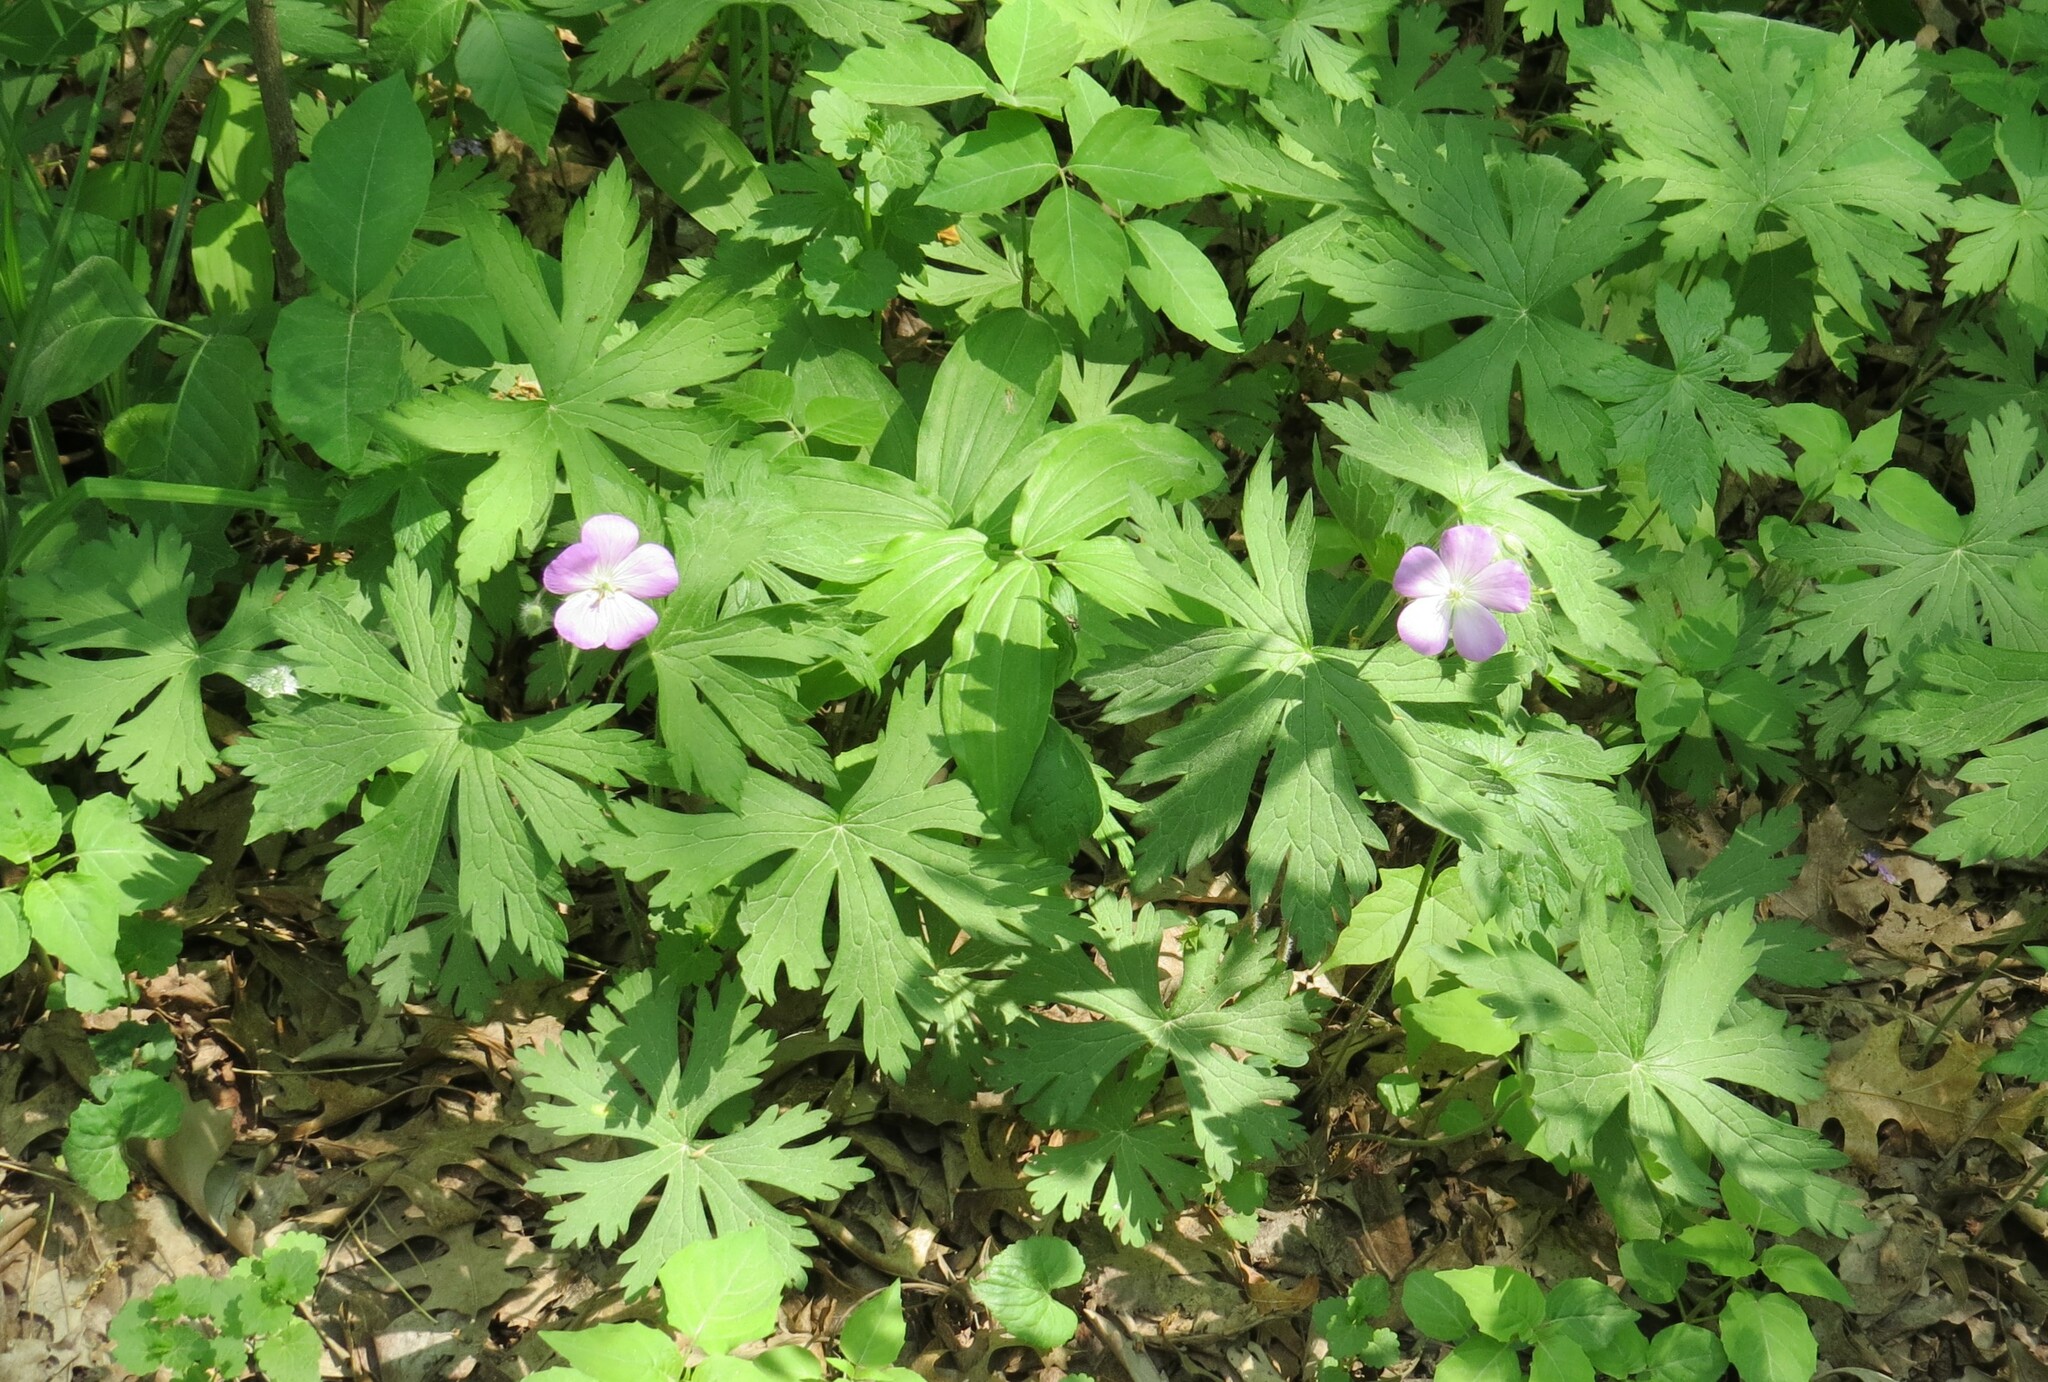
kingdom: Plantae
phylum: Tracheophyta
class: Magnoliopsida
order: Geraniales
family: Geraniaceae
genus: Geranium
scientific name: Geranium maculatum
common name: Spotted geranium
